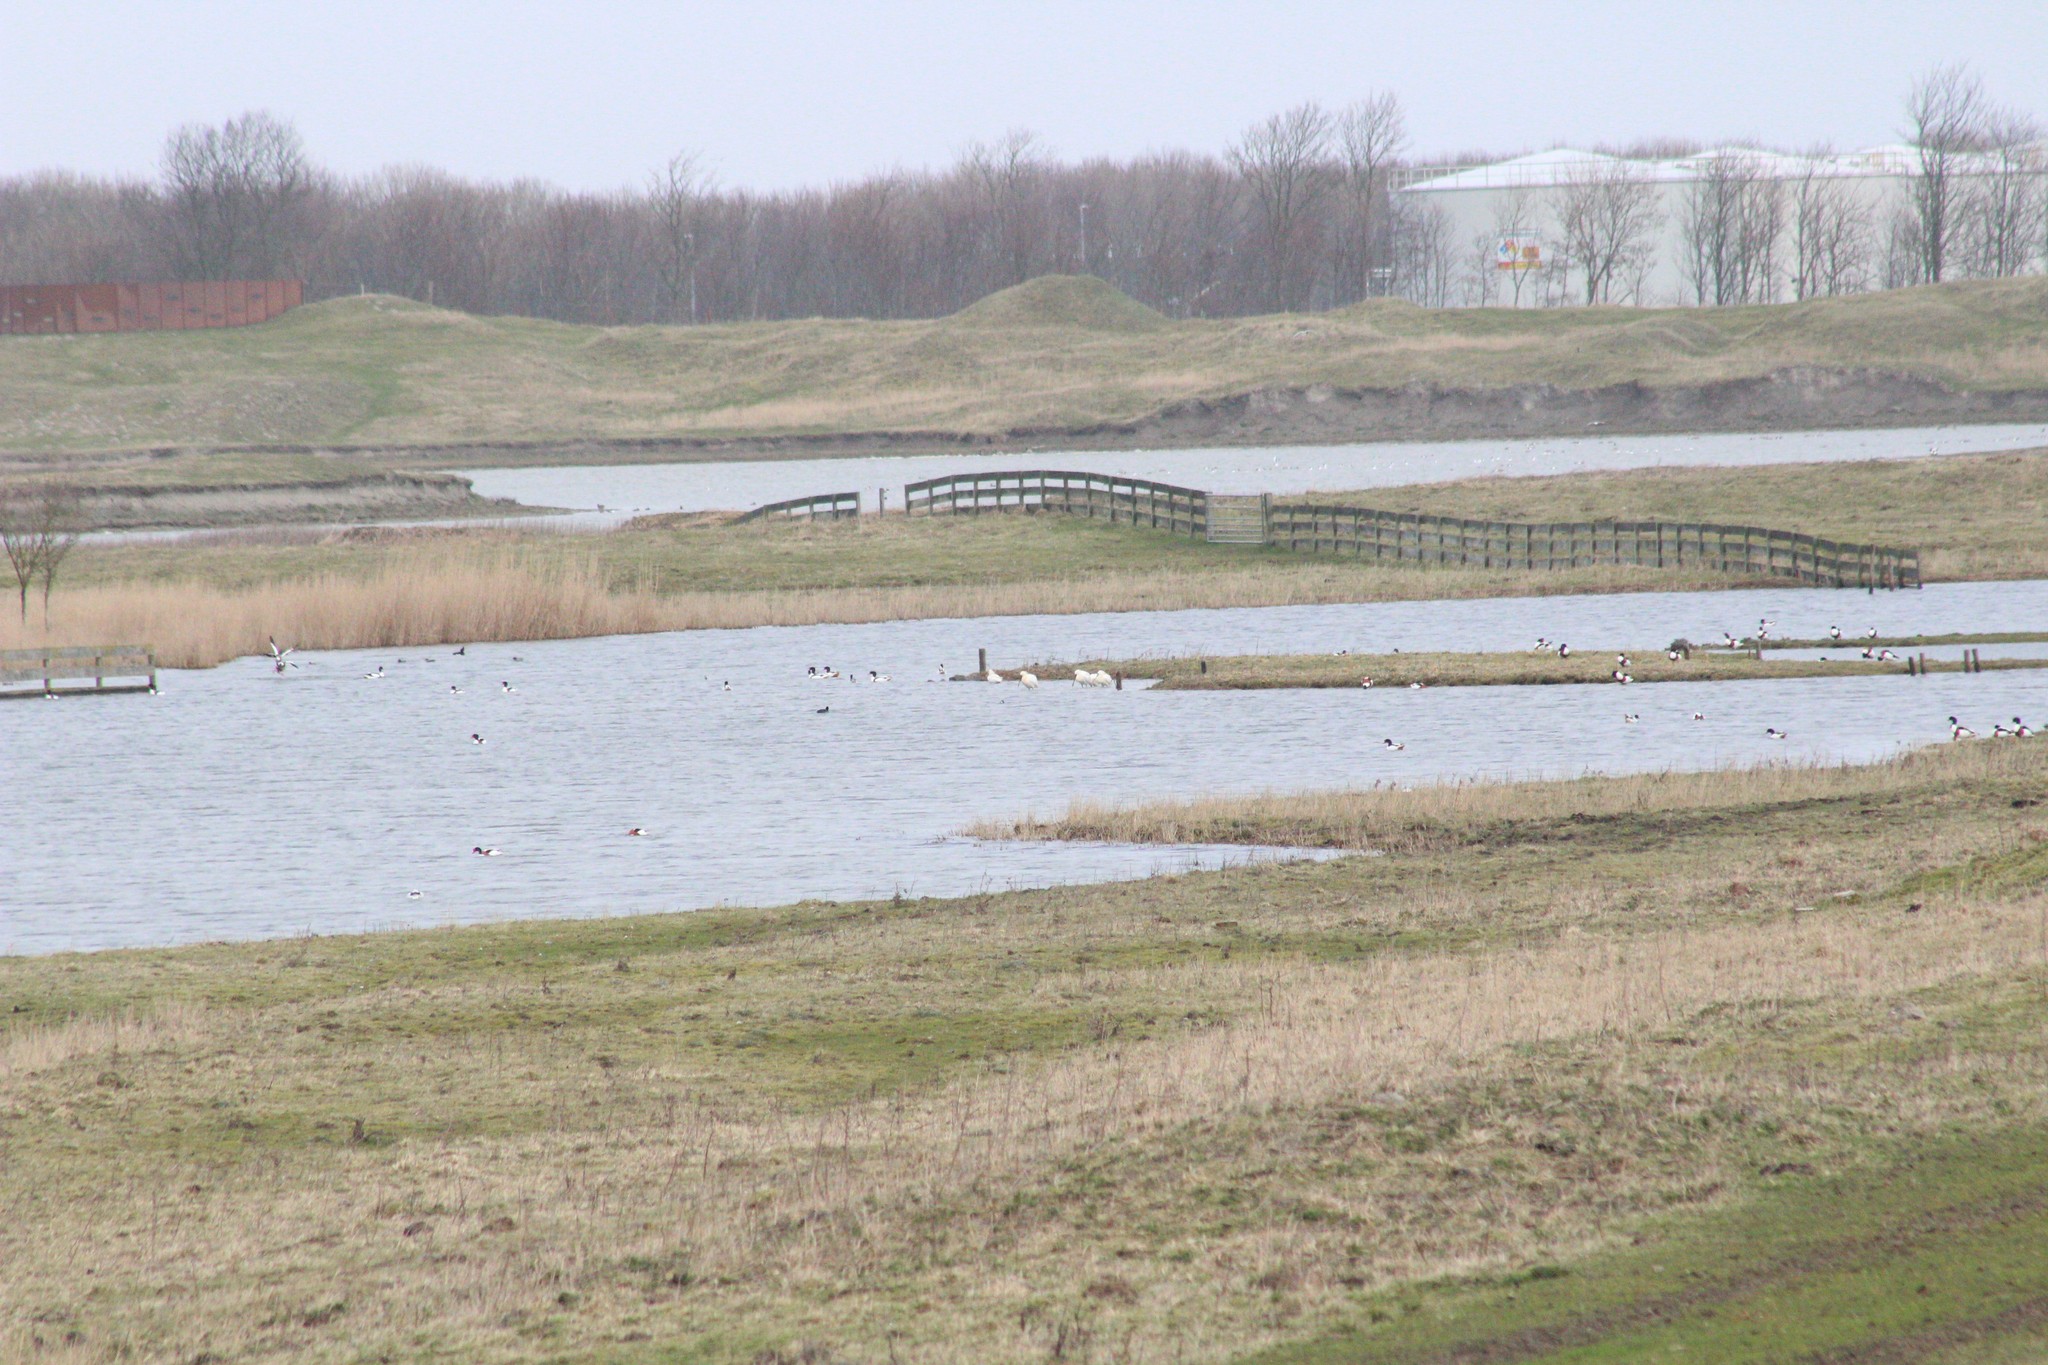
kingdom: Animalia
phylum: Chordata
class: Aves
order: Pelecaniformes
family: Threskiornithidae
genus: Platalea
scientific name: Platalea leucorodia
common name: Eurasian spoonbill
